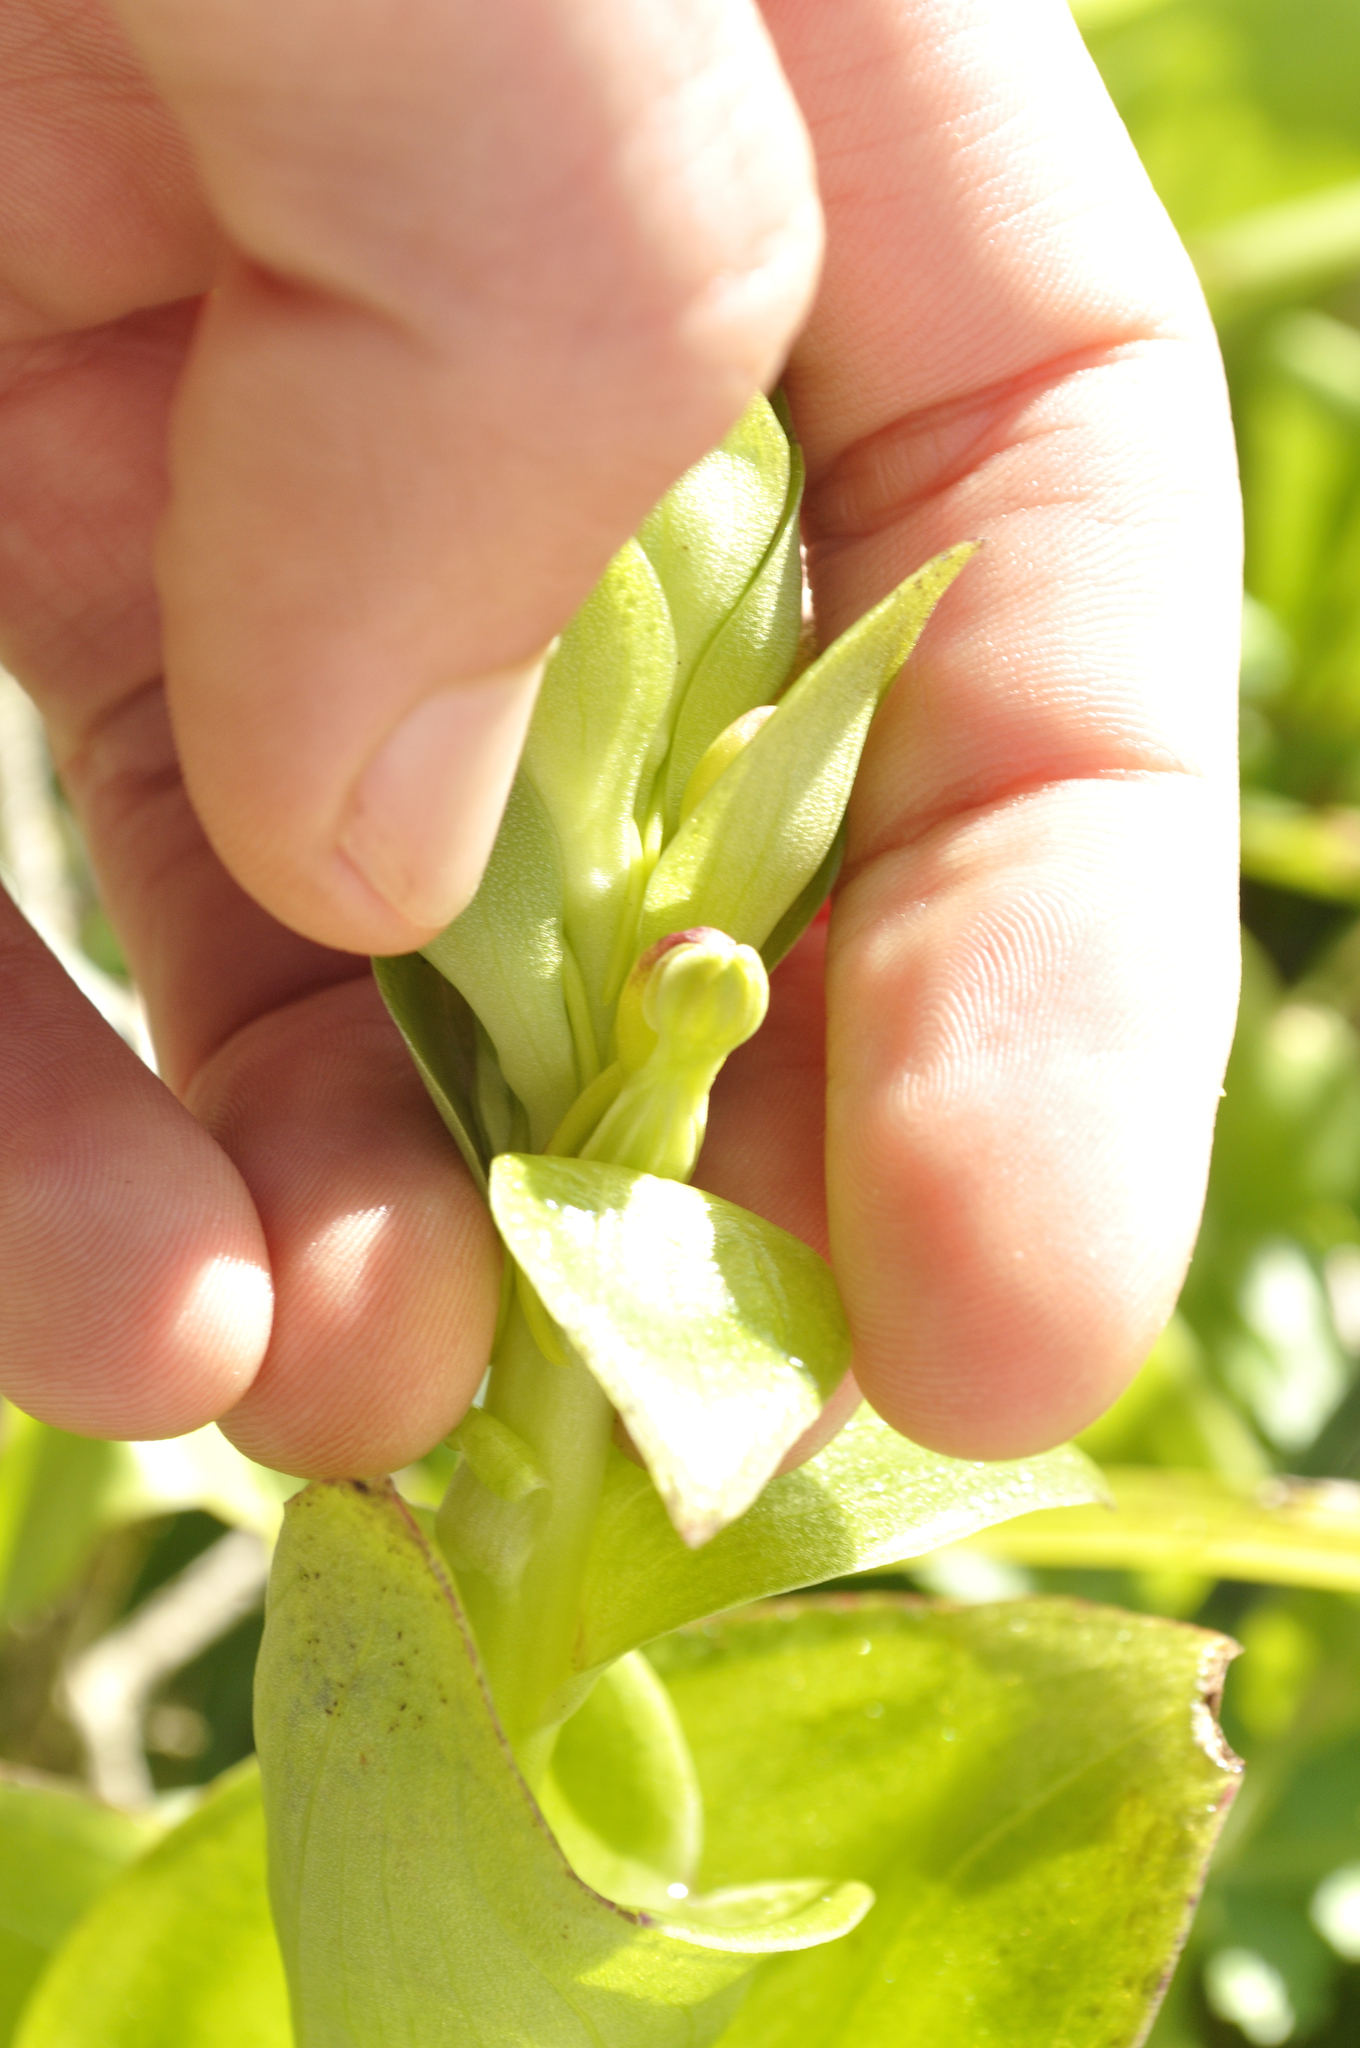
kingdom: Plantae
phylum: Tracheophyta
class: Liliopsida
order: Asparagales
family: Orchidaceae
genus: Satyrium
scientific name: Satyrium odorum
